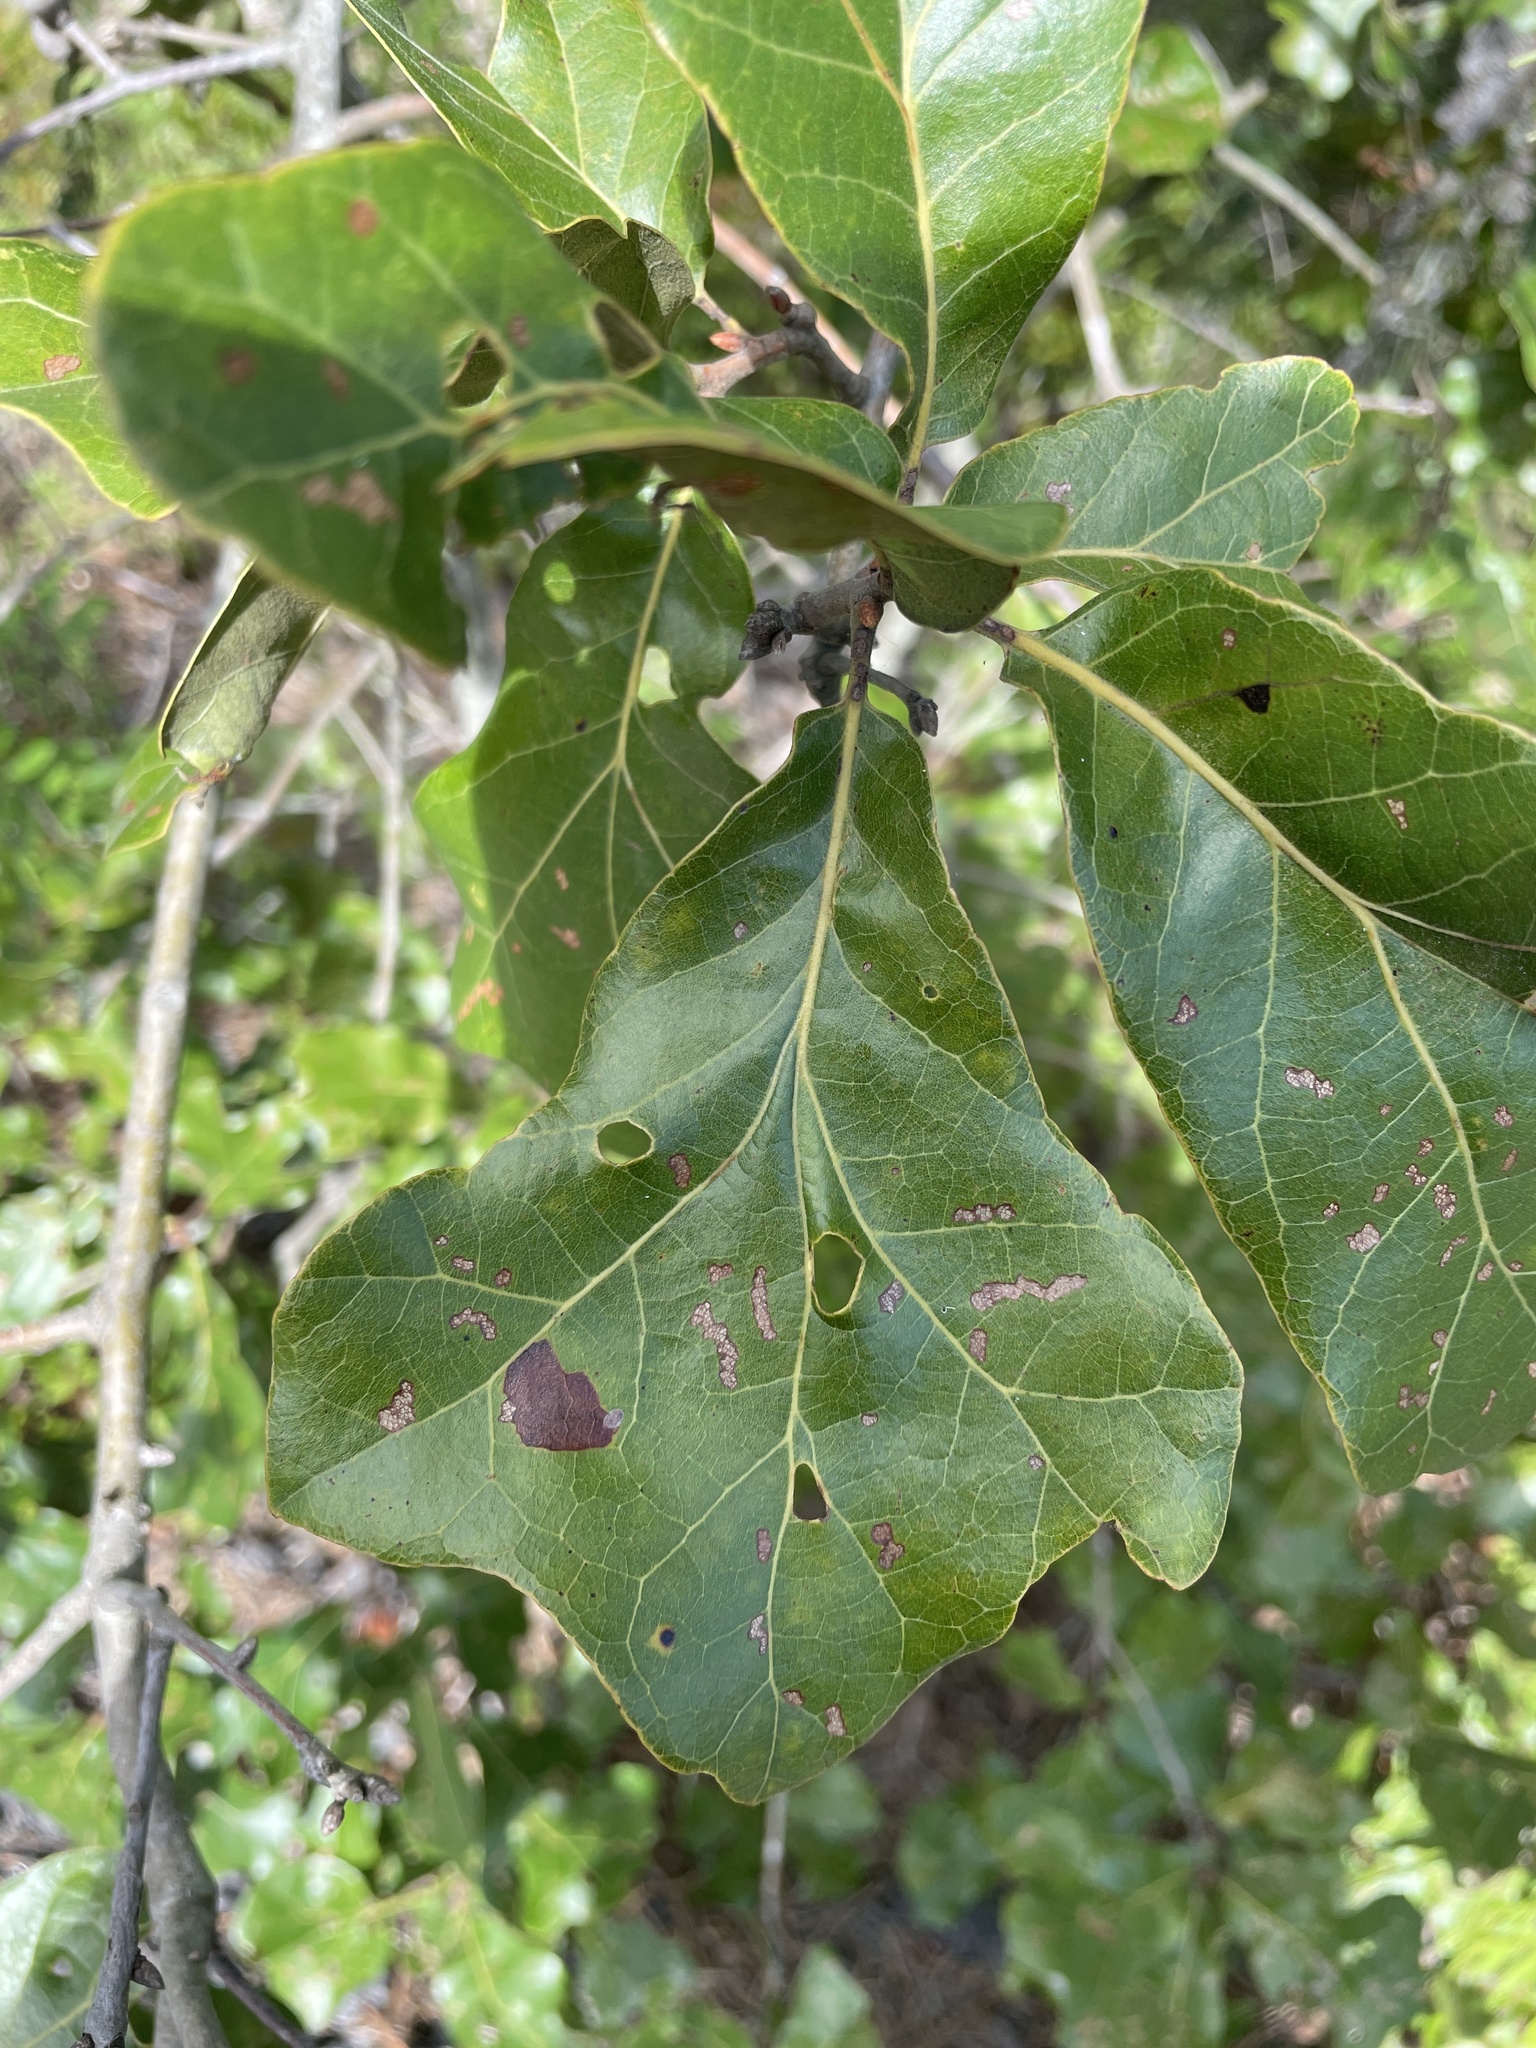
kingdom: Plantae
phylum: Tracheophyta
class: Magnoliopsida
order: Fagales
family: Fagaceae
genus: Quercus
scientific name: Quercus marilandica
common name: Blackjack oak
